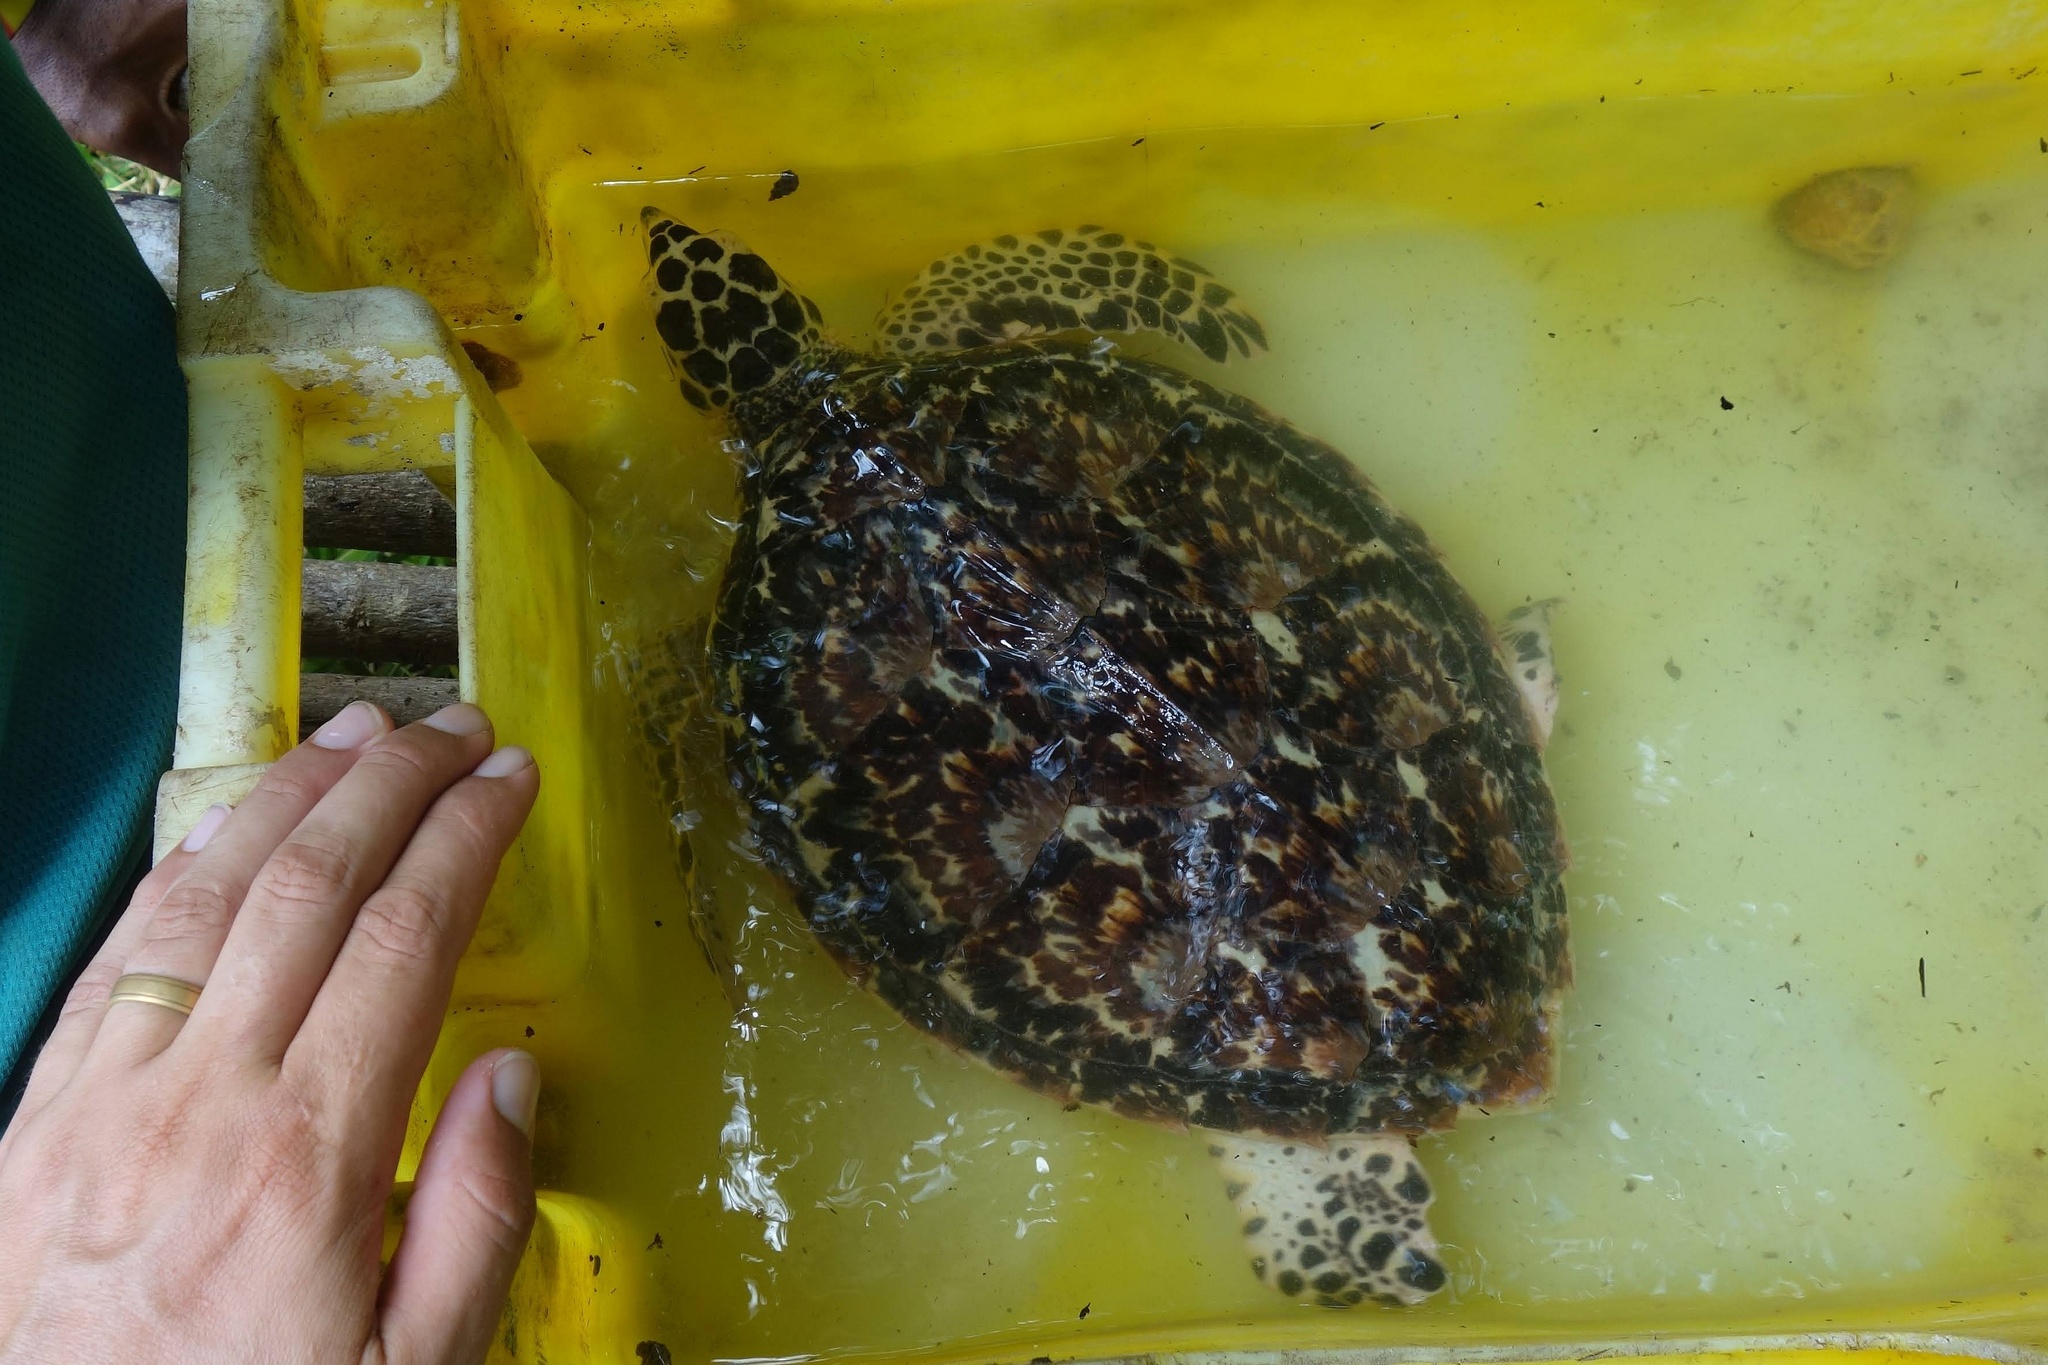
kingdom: Animalia
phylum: Chordata
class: Testudines
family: Cheloniidae
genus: Eretmochelys
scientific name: Eretmochelys imbricata
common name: Hawksbill turtle
